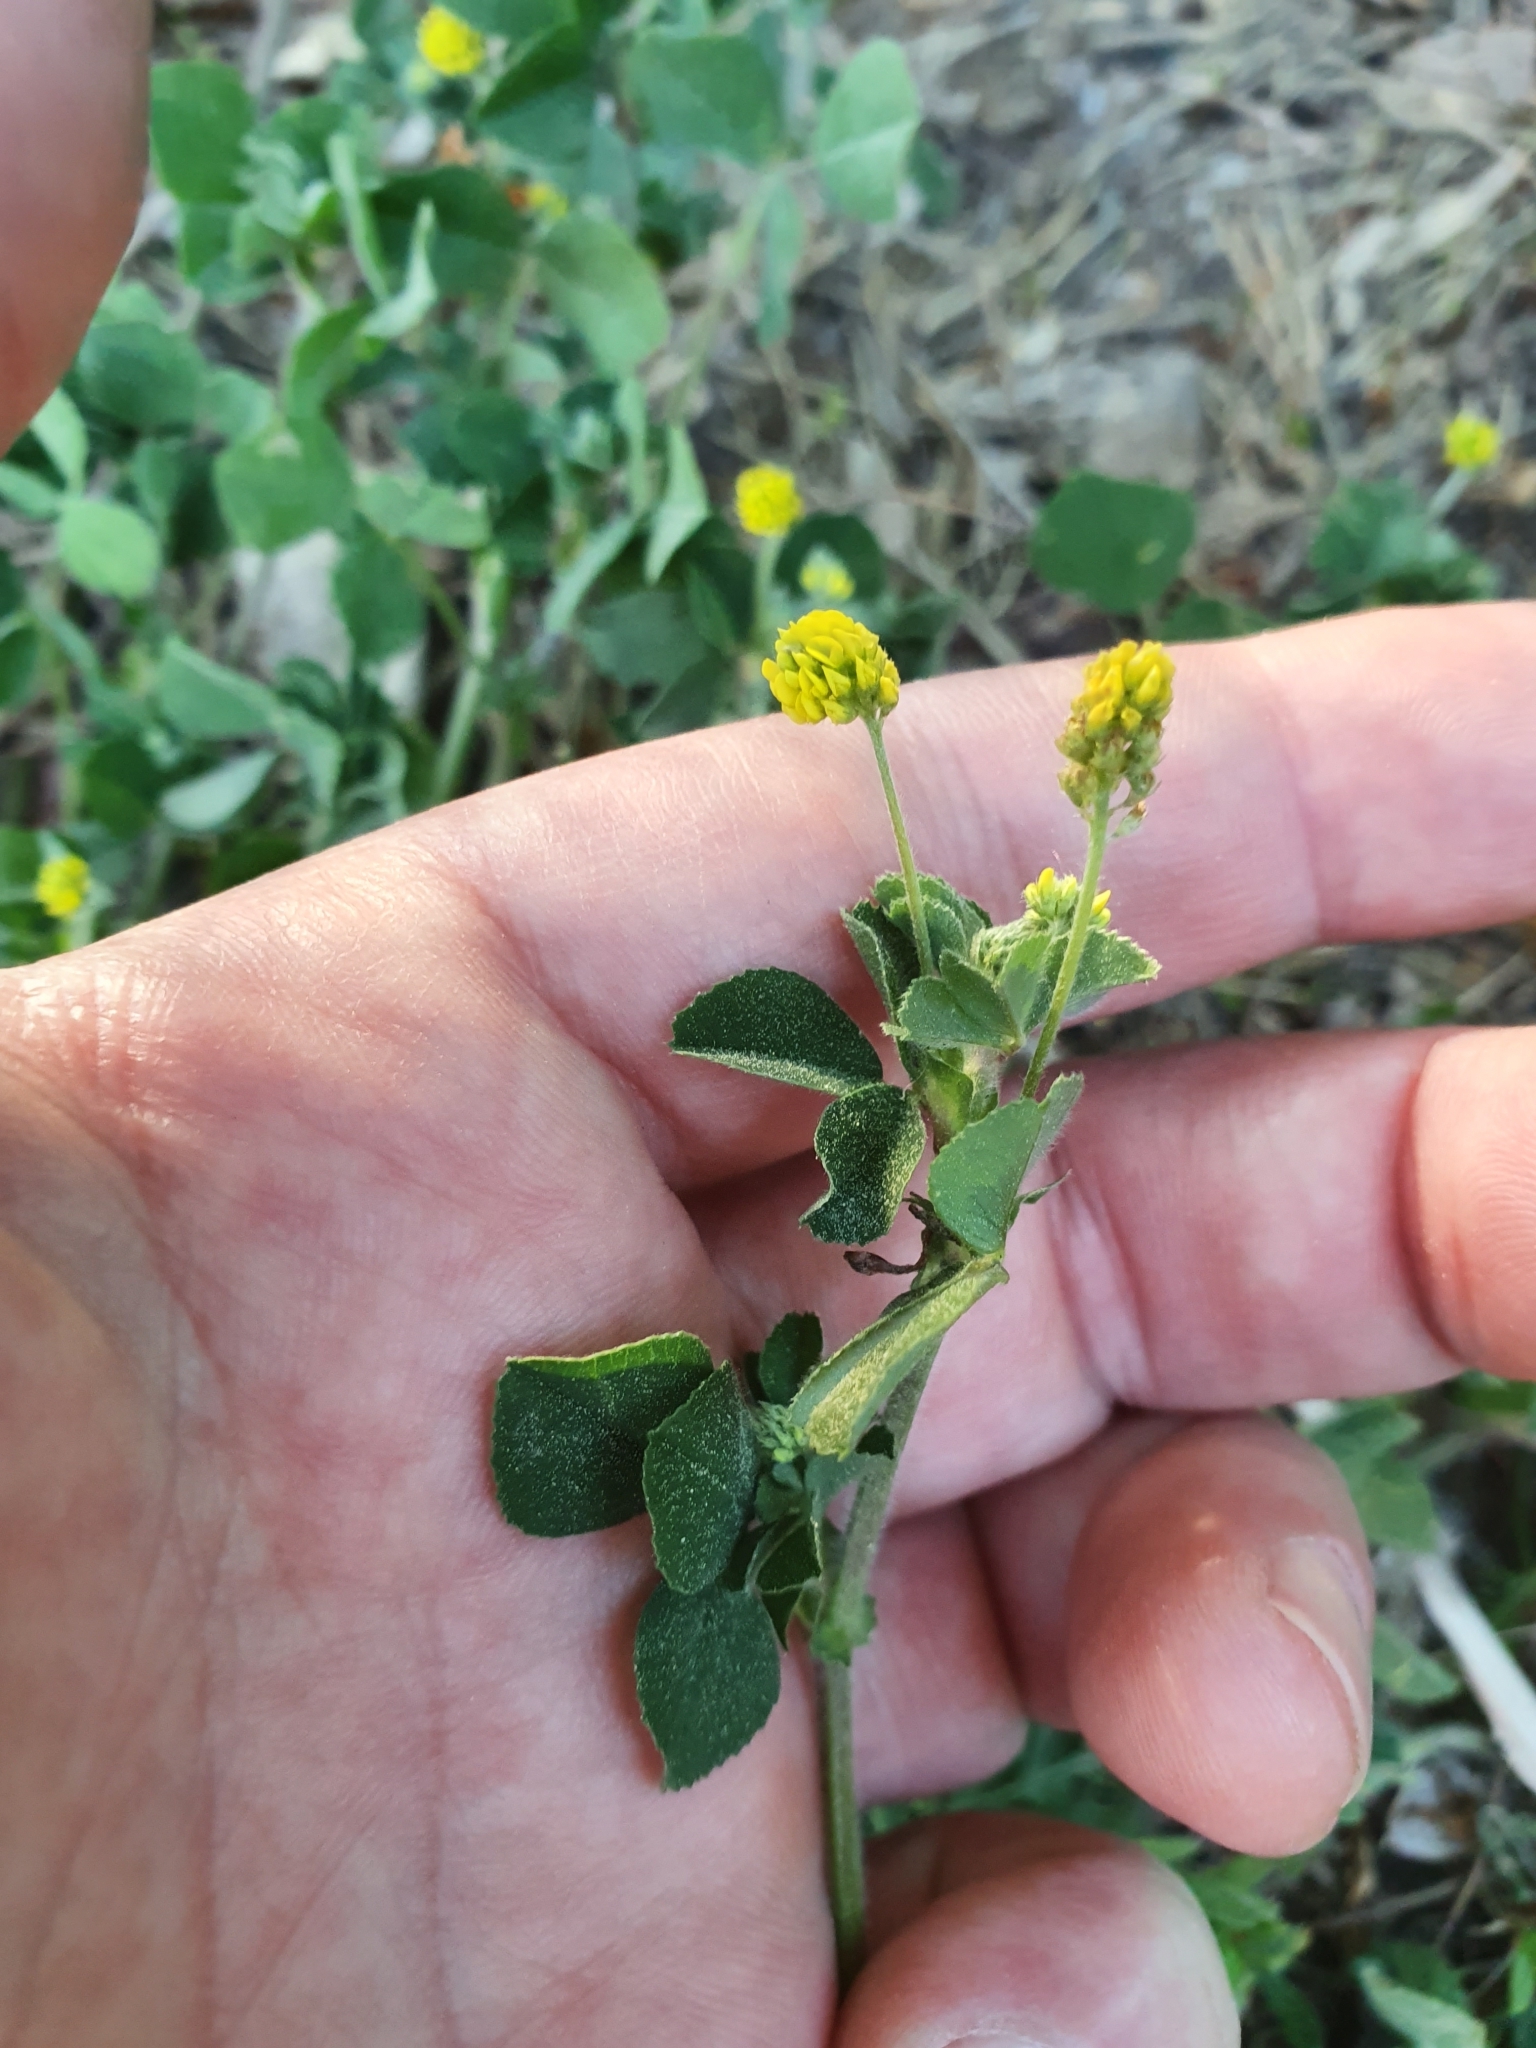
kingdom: Plantae
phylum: Tracheophyta
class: Magnoliopsida
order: Fabales
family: Fabaceae
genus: Medicago
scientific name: Medicago lupulina
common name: Black medick
